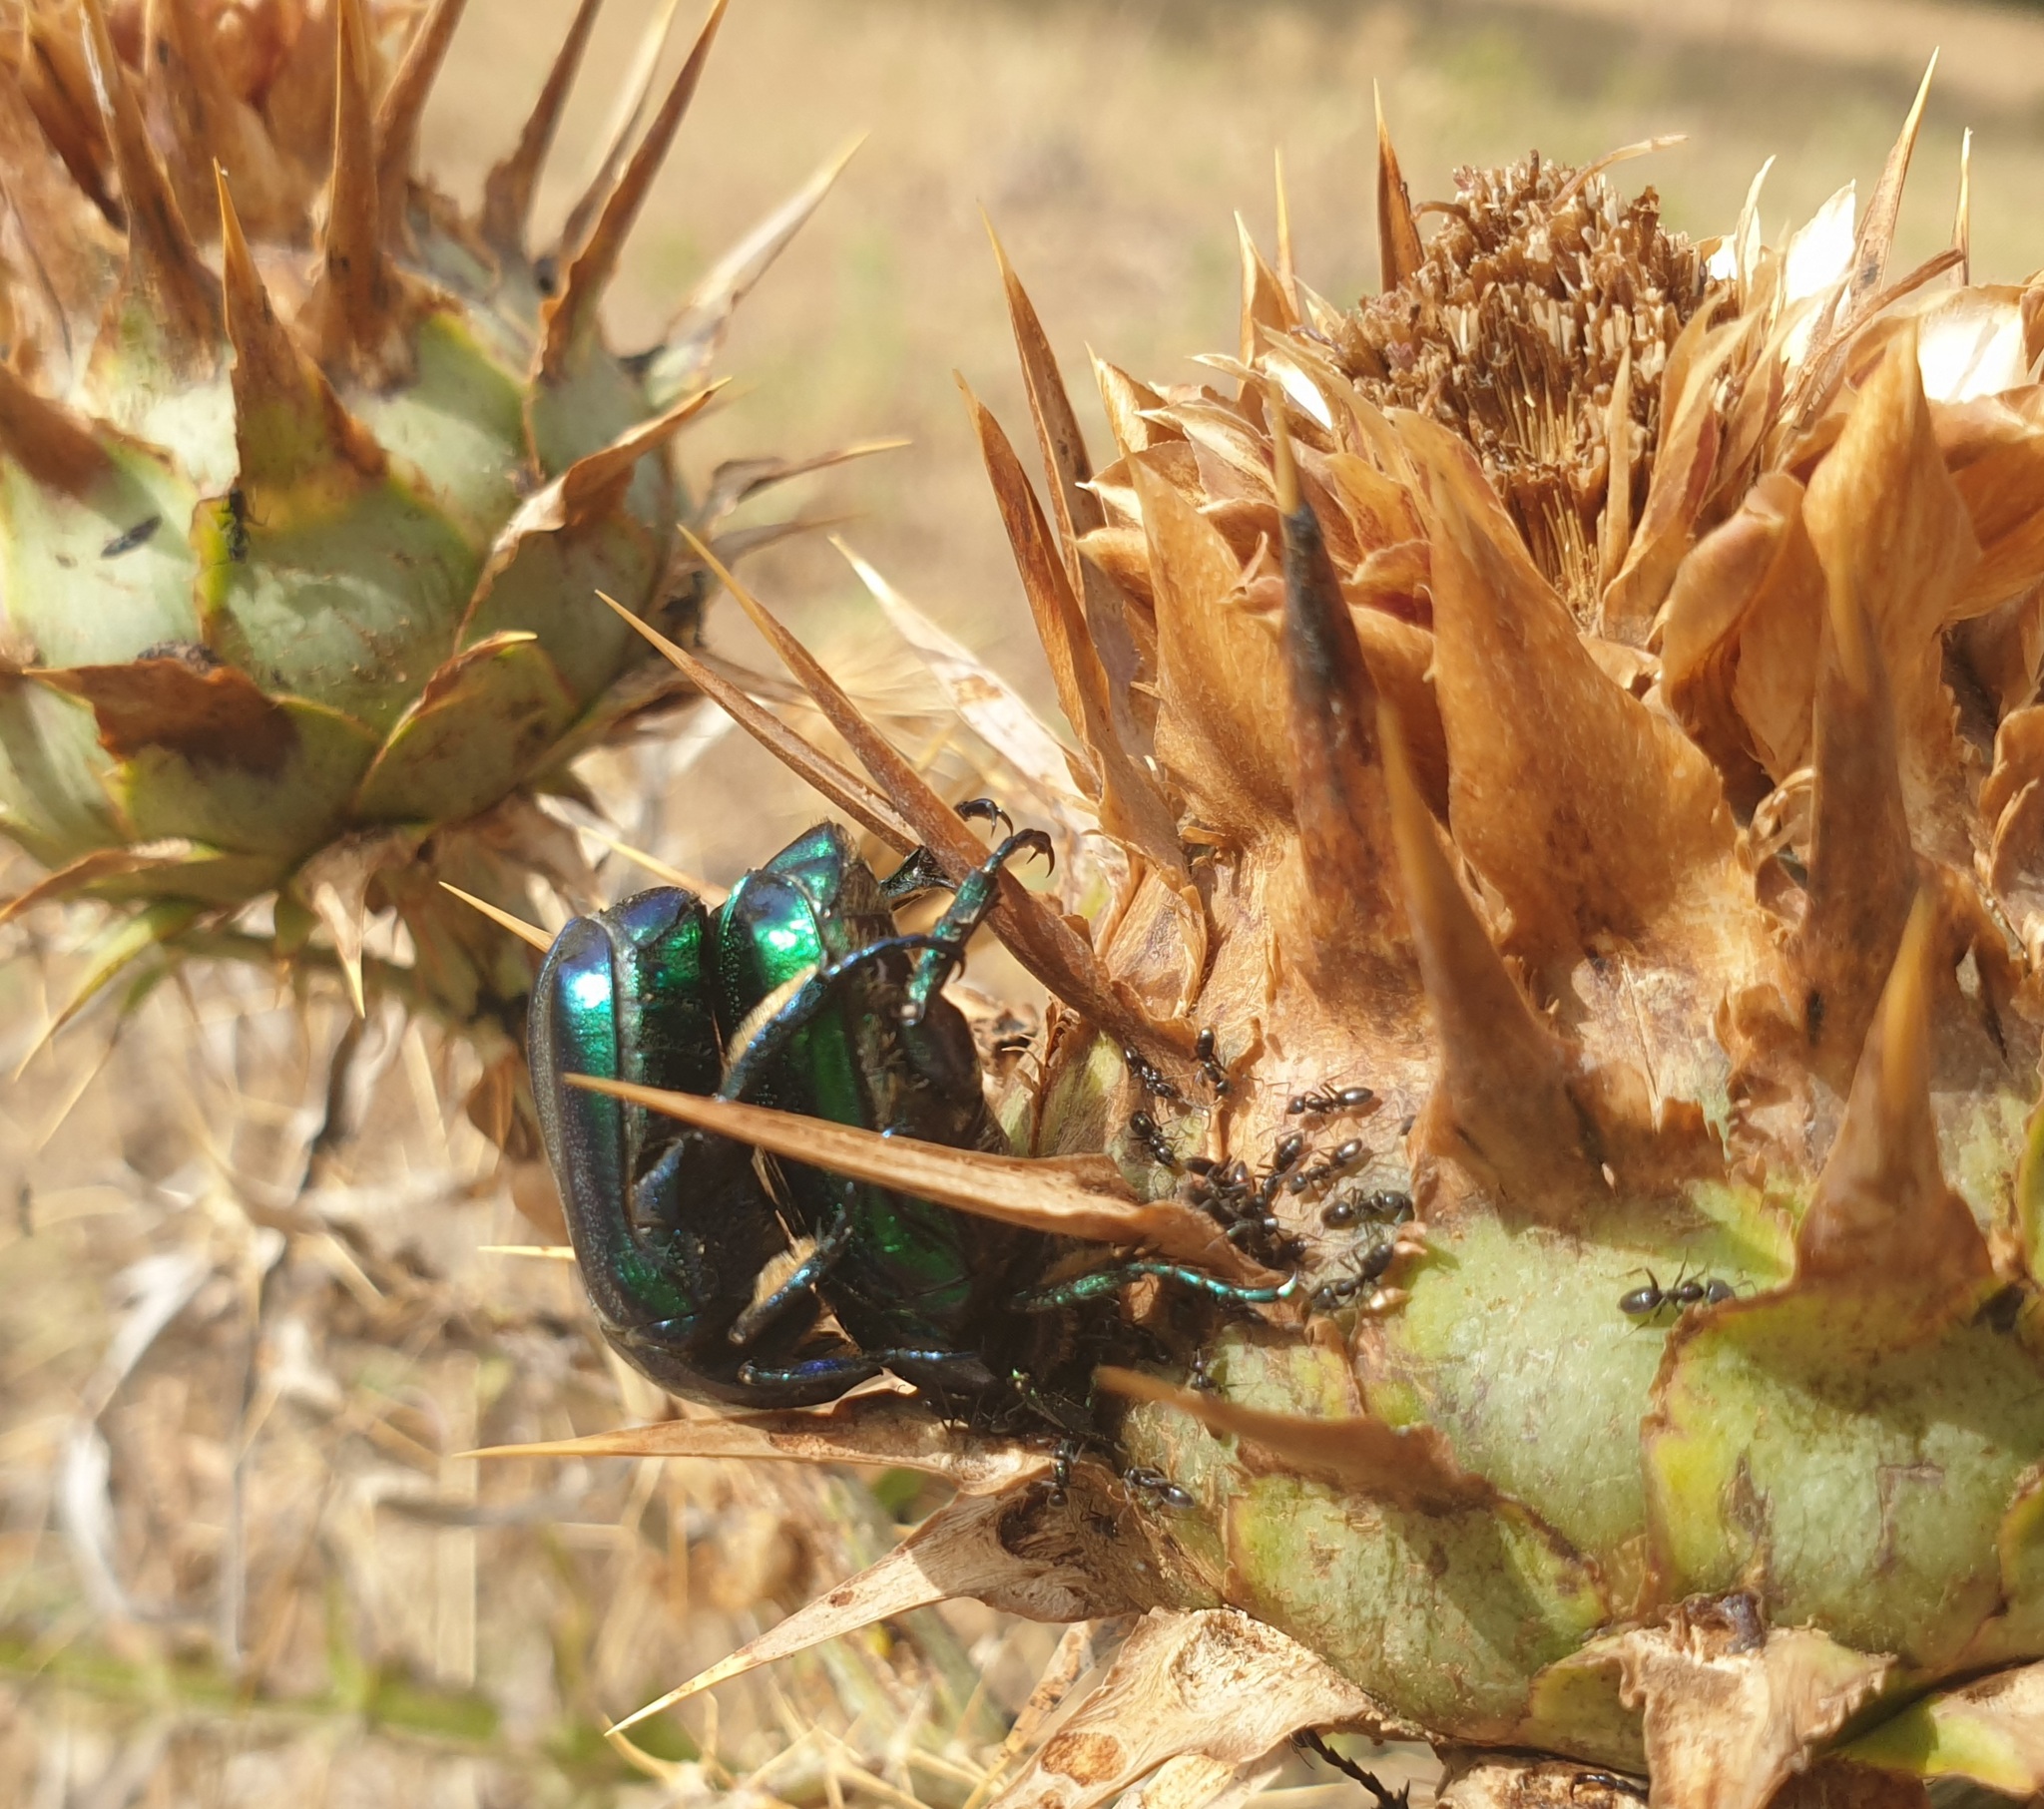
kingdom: Animalia
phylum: Arthropoda
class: Insecta
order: Coleoptera
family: Scarabaeidae
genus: Protaetia
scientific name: Protaetia affinis
